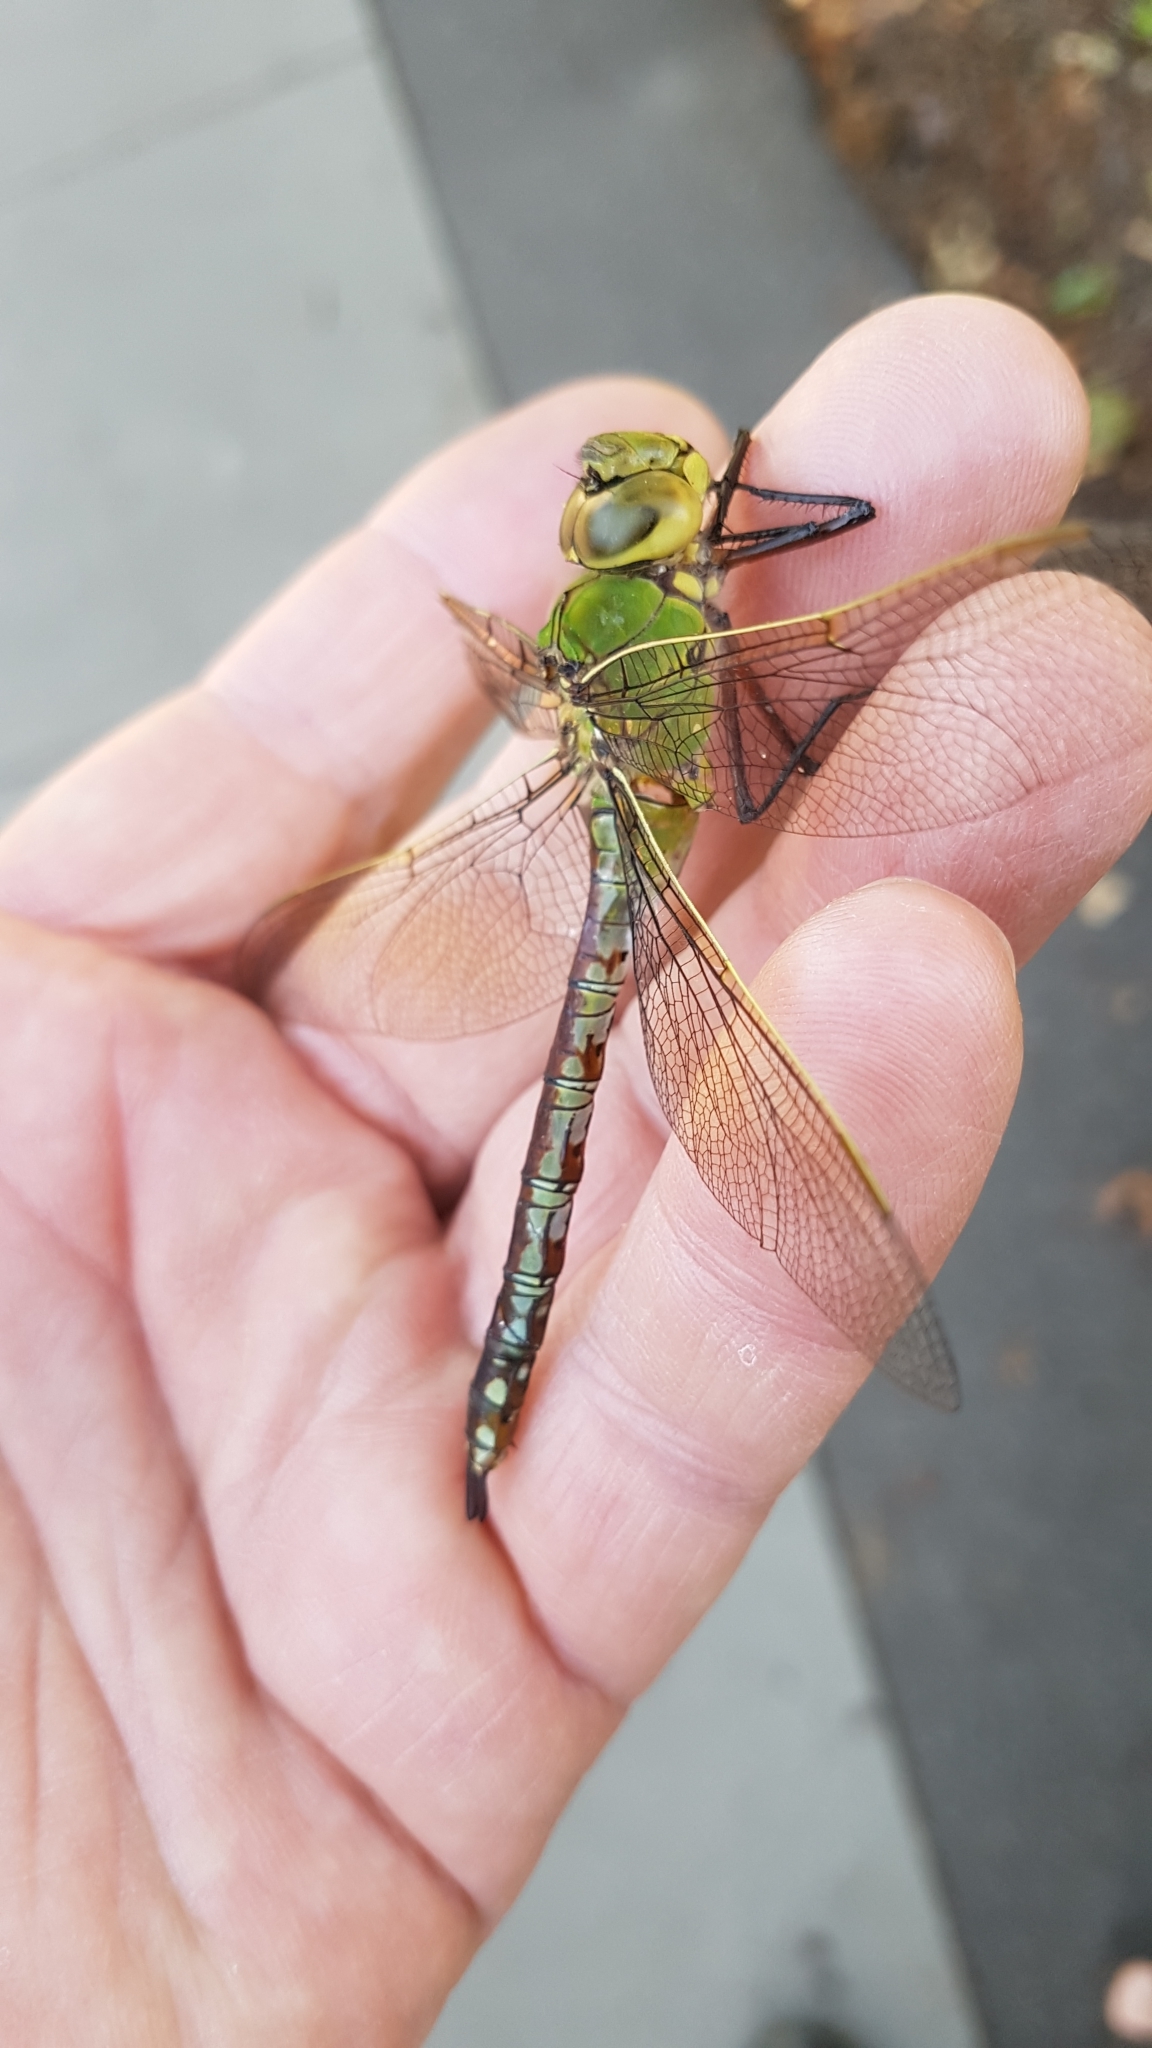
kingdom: Animalia
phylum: Arthropoda
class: Insecta
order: Odonata
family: Aeshnidae
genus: Anax
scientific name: Anax imperator
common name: Emperor dragonfly
